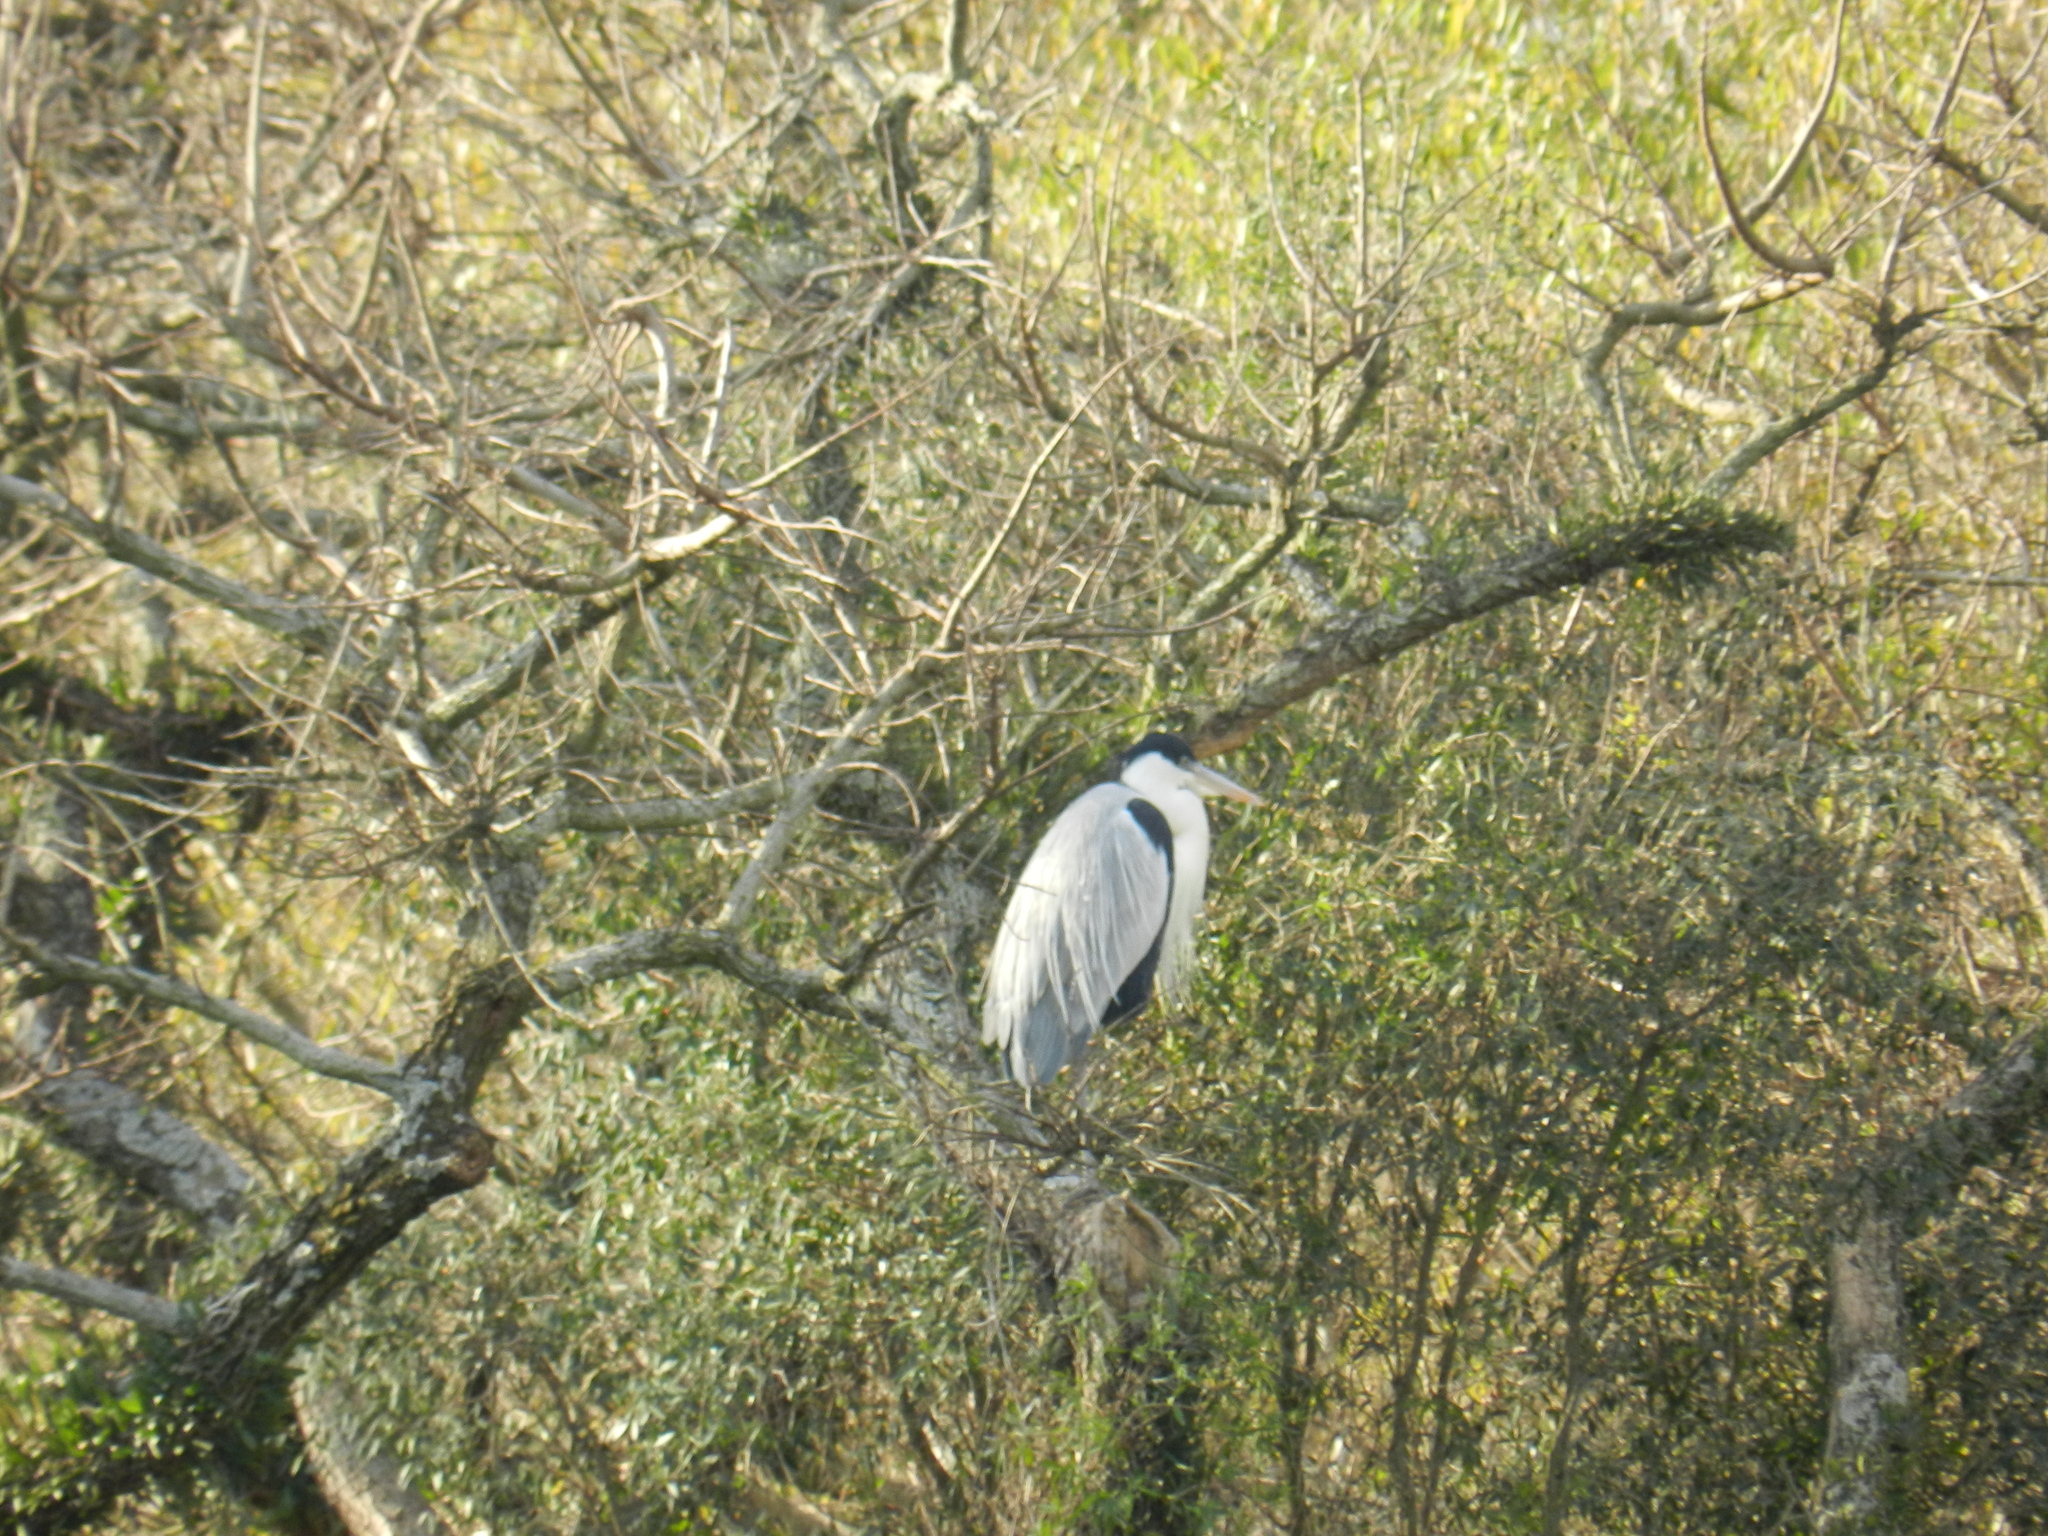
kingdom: Animalia
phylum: Chordata
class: Aves
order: Pelecaniformes
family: Ardeidae
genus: Ardea
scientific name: Ardea cocoi
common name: Cocoi heron
